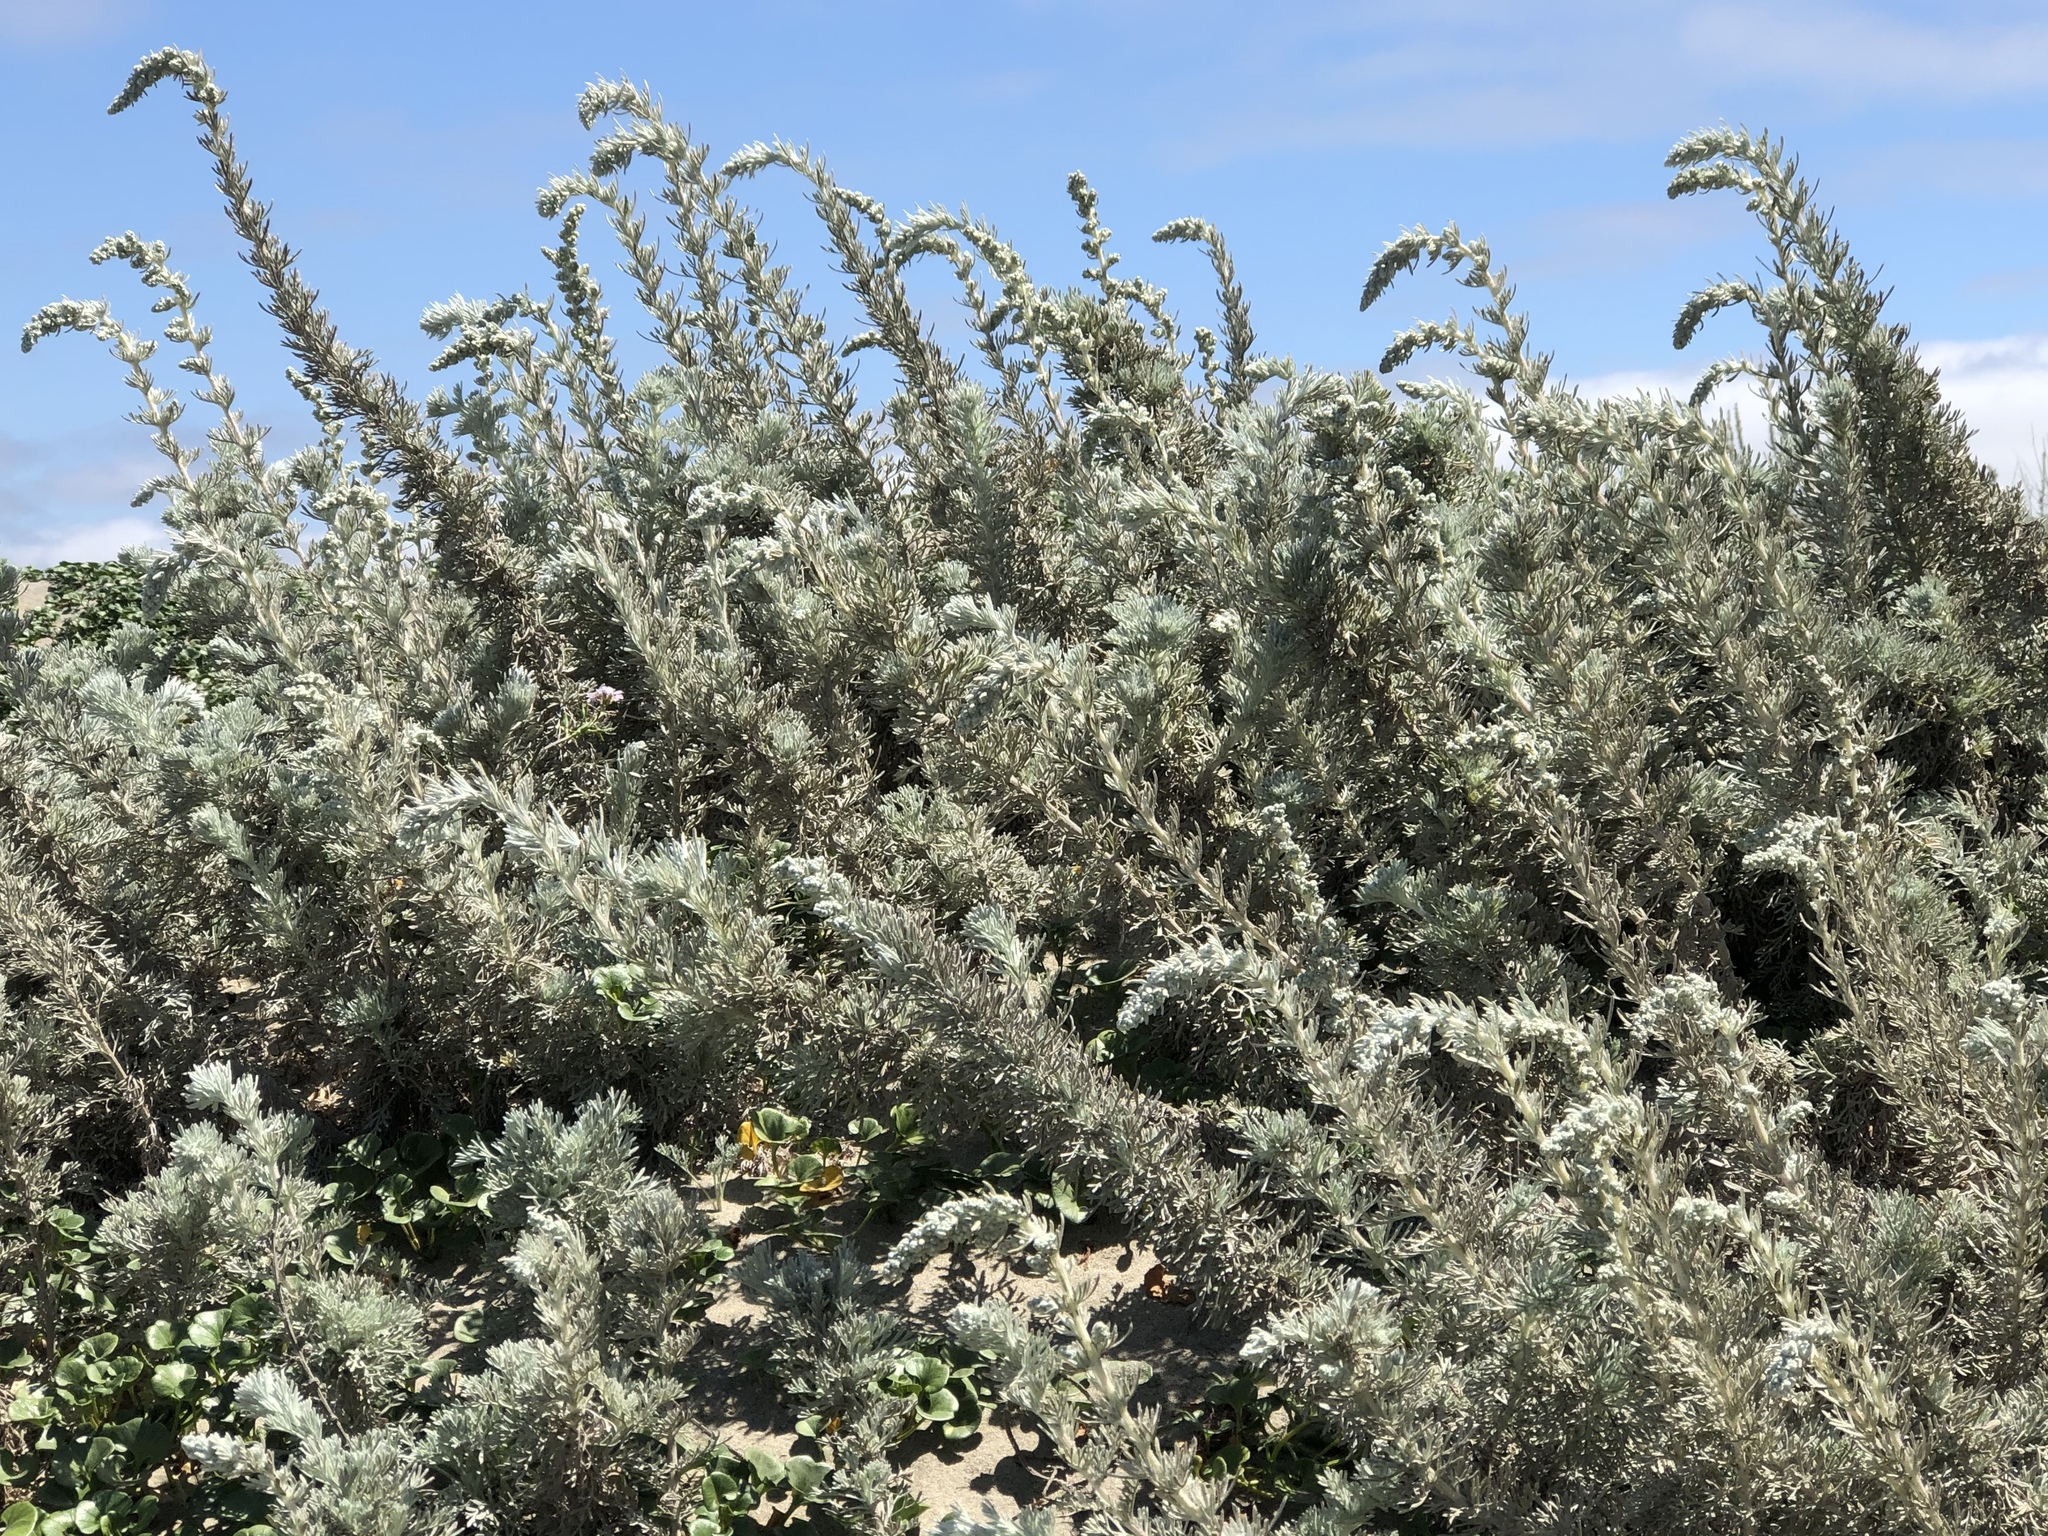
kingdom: Plantae
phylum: Tracheophyta
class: Magnoliopsida
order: Asterales
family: Asteraceae
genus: Artemisia
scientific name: Artemisia pycnocephala
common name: Coastal sagewort
